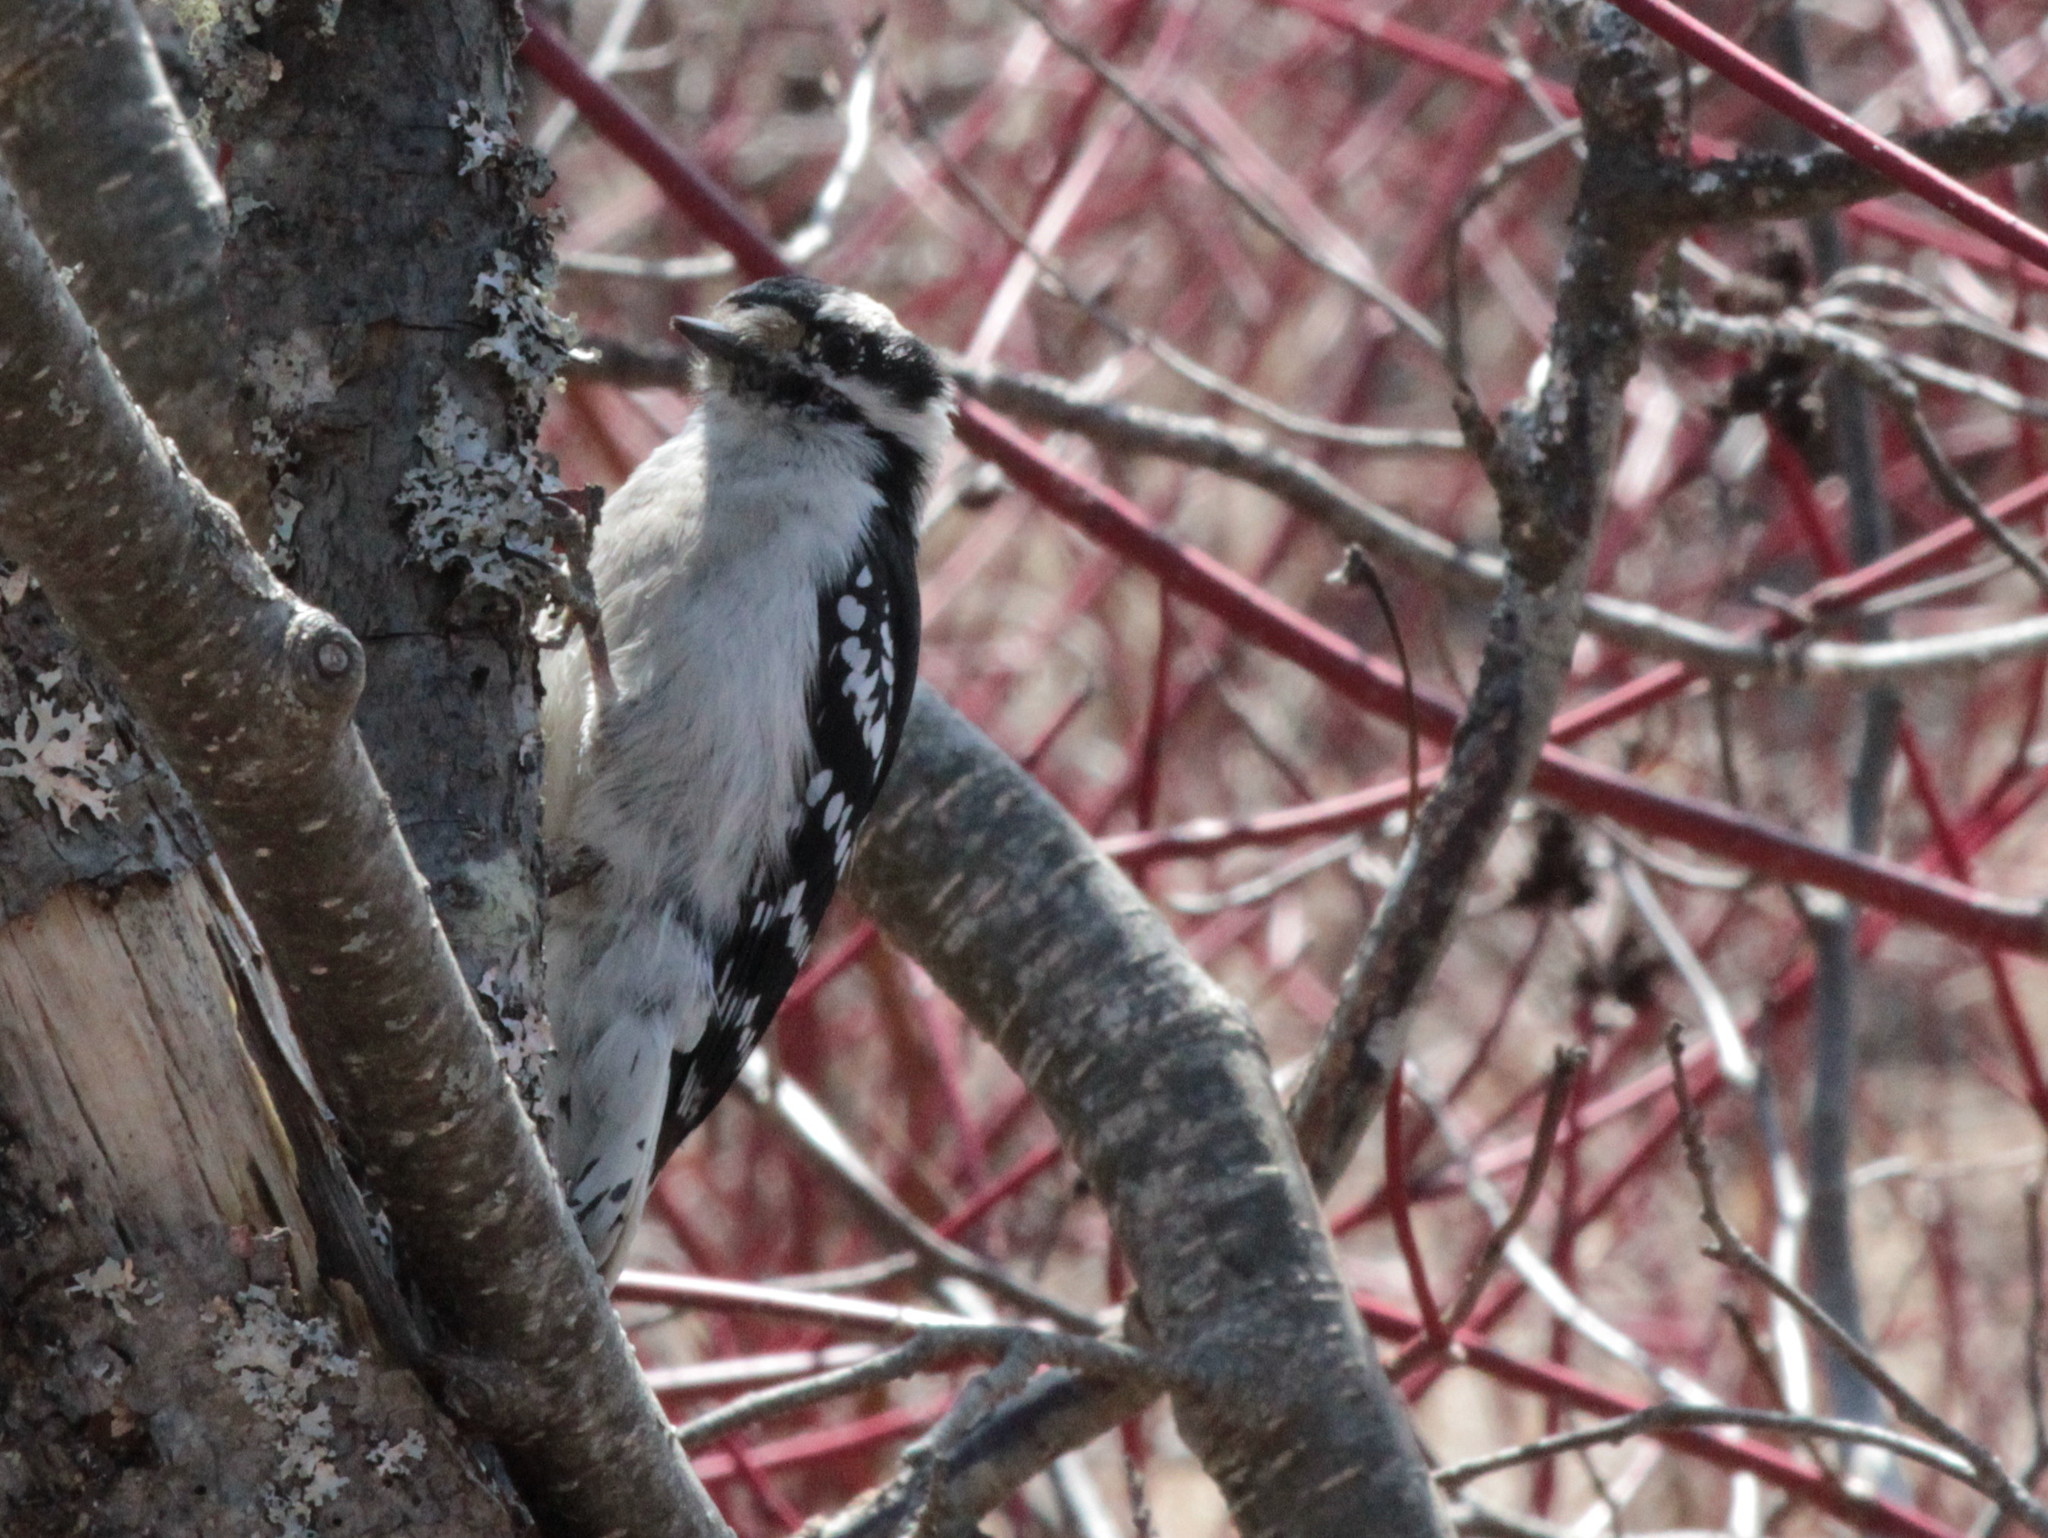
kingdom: Animalia
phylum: Chordata
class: Aves
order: Piciformes
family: Picidae
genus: Dryobates
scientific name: Dryobates pubescens
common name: Downy woodpecker
